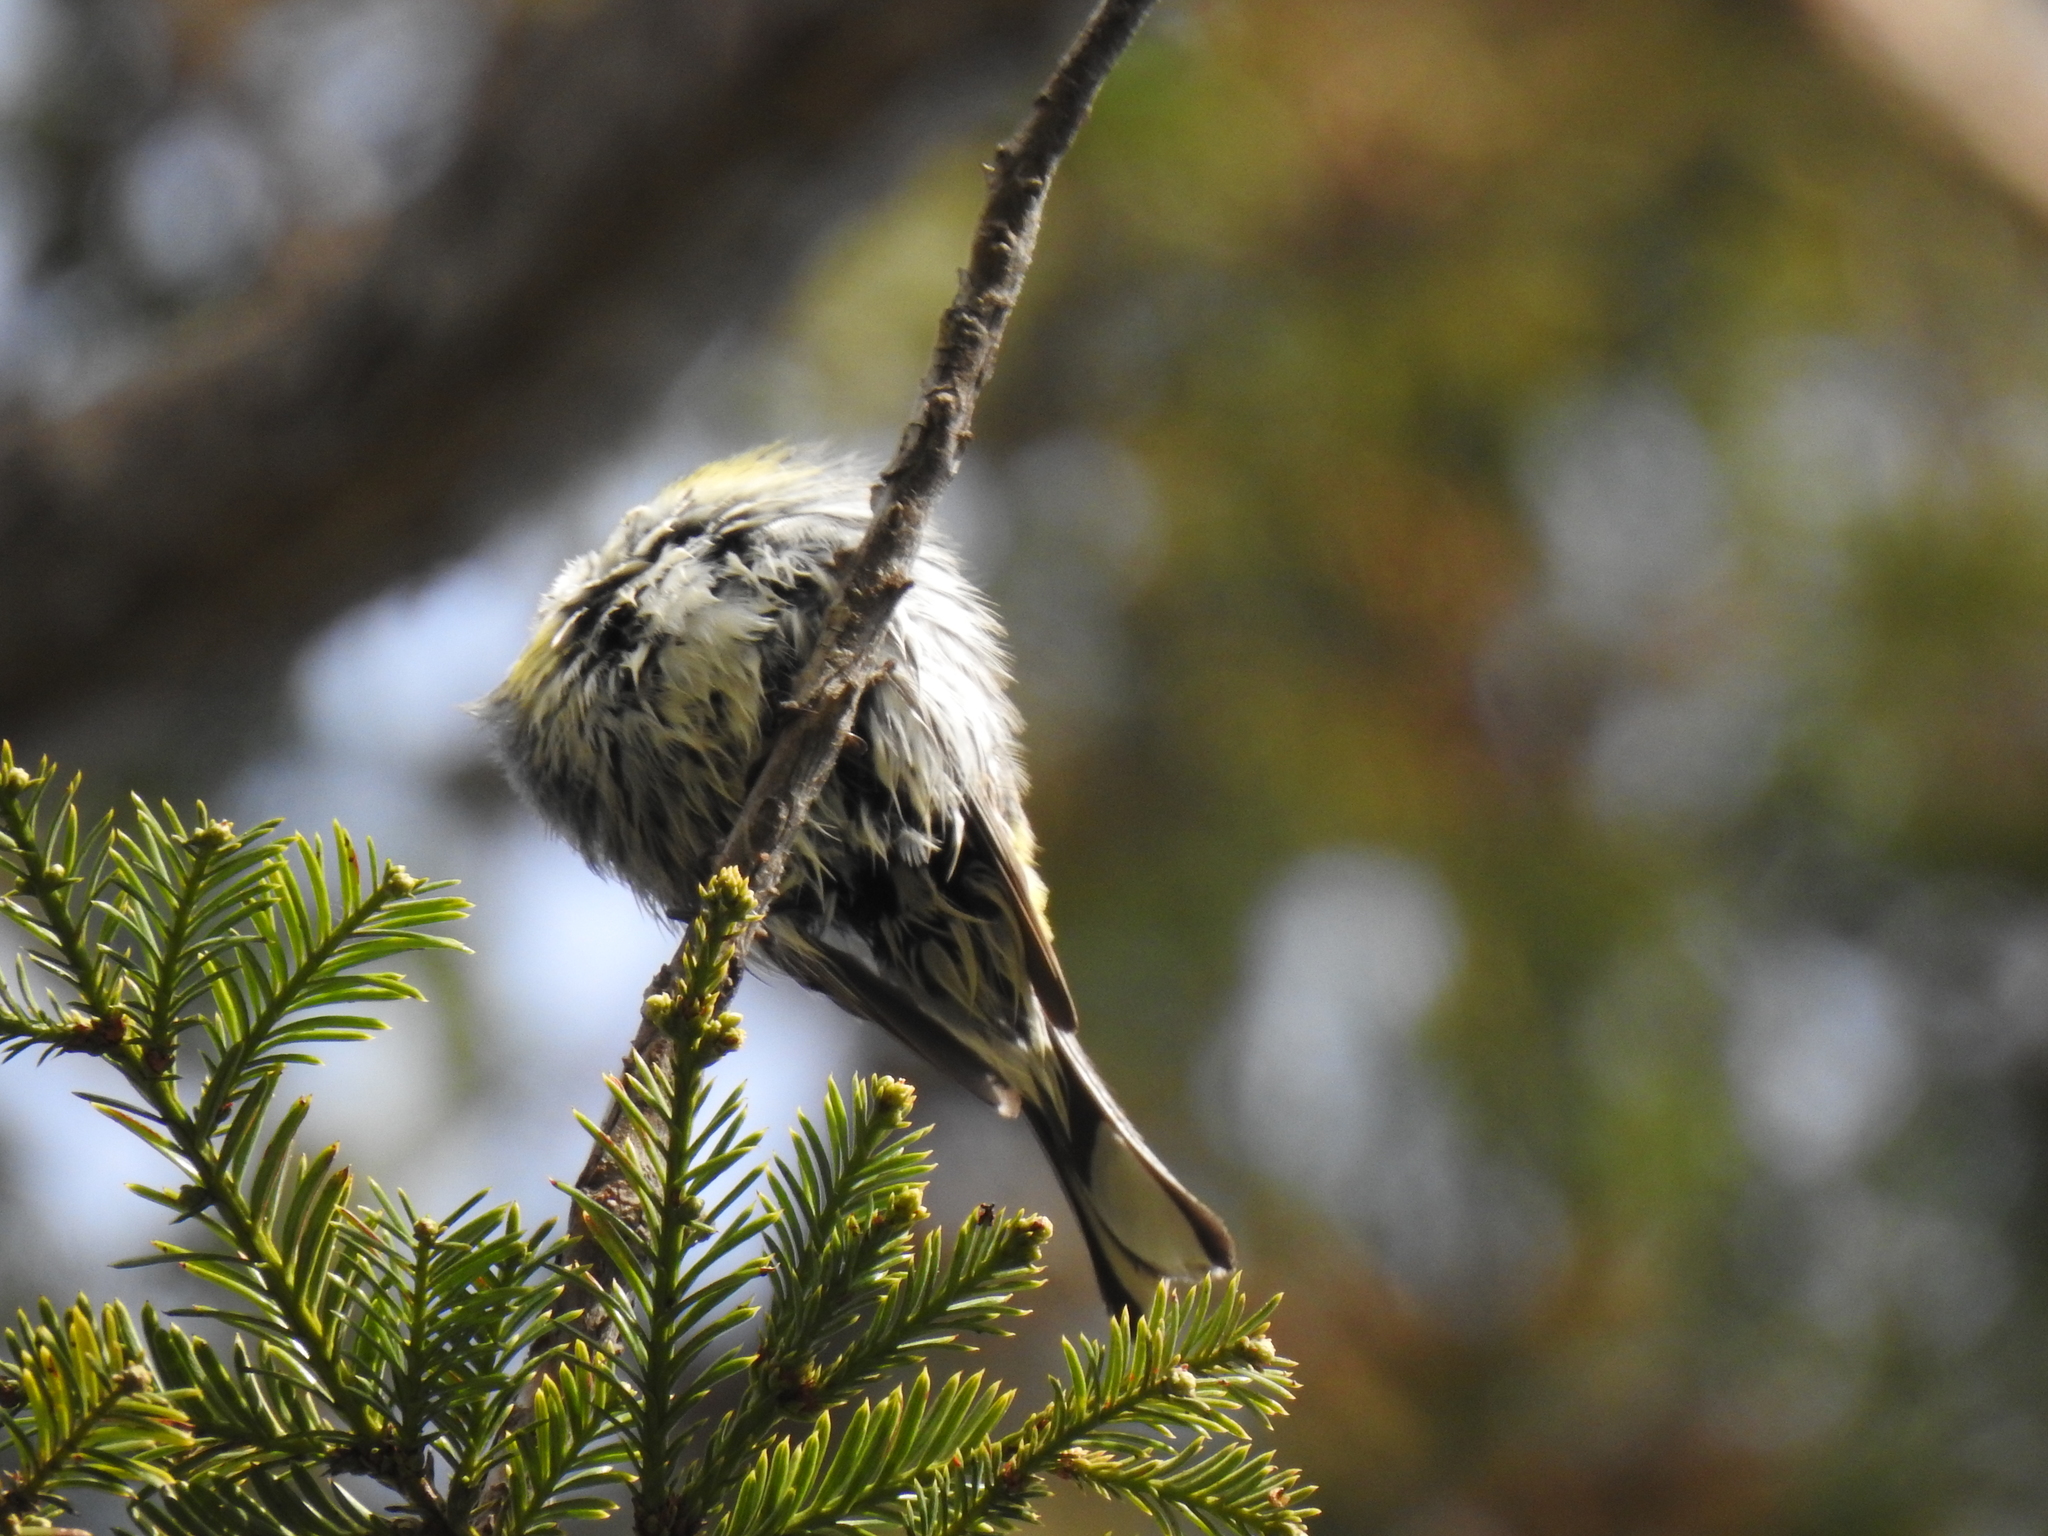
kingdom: Animalia
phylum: Chordata
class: Aves
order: Passeriformes
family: Parulidae
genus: Setophaga
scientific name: Setophaga coronata
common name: Myrtle warbler
